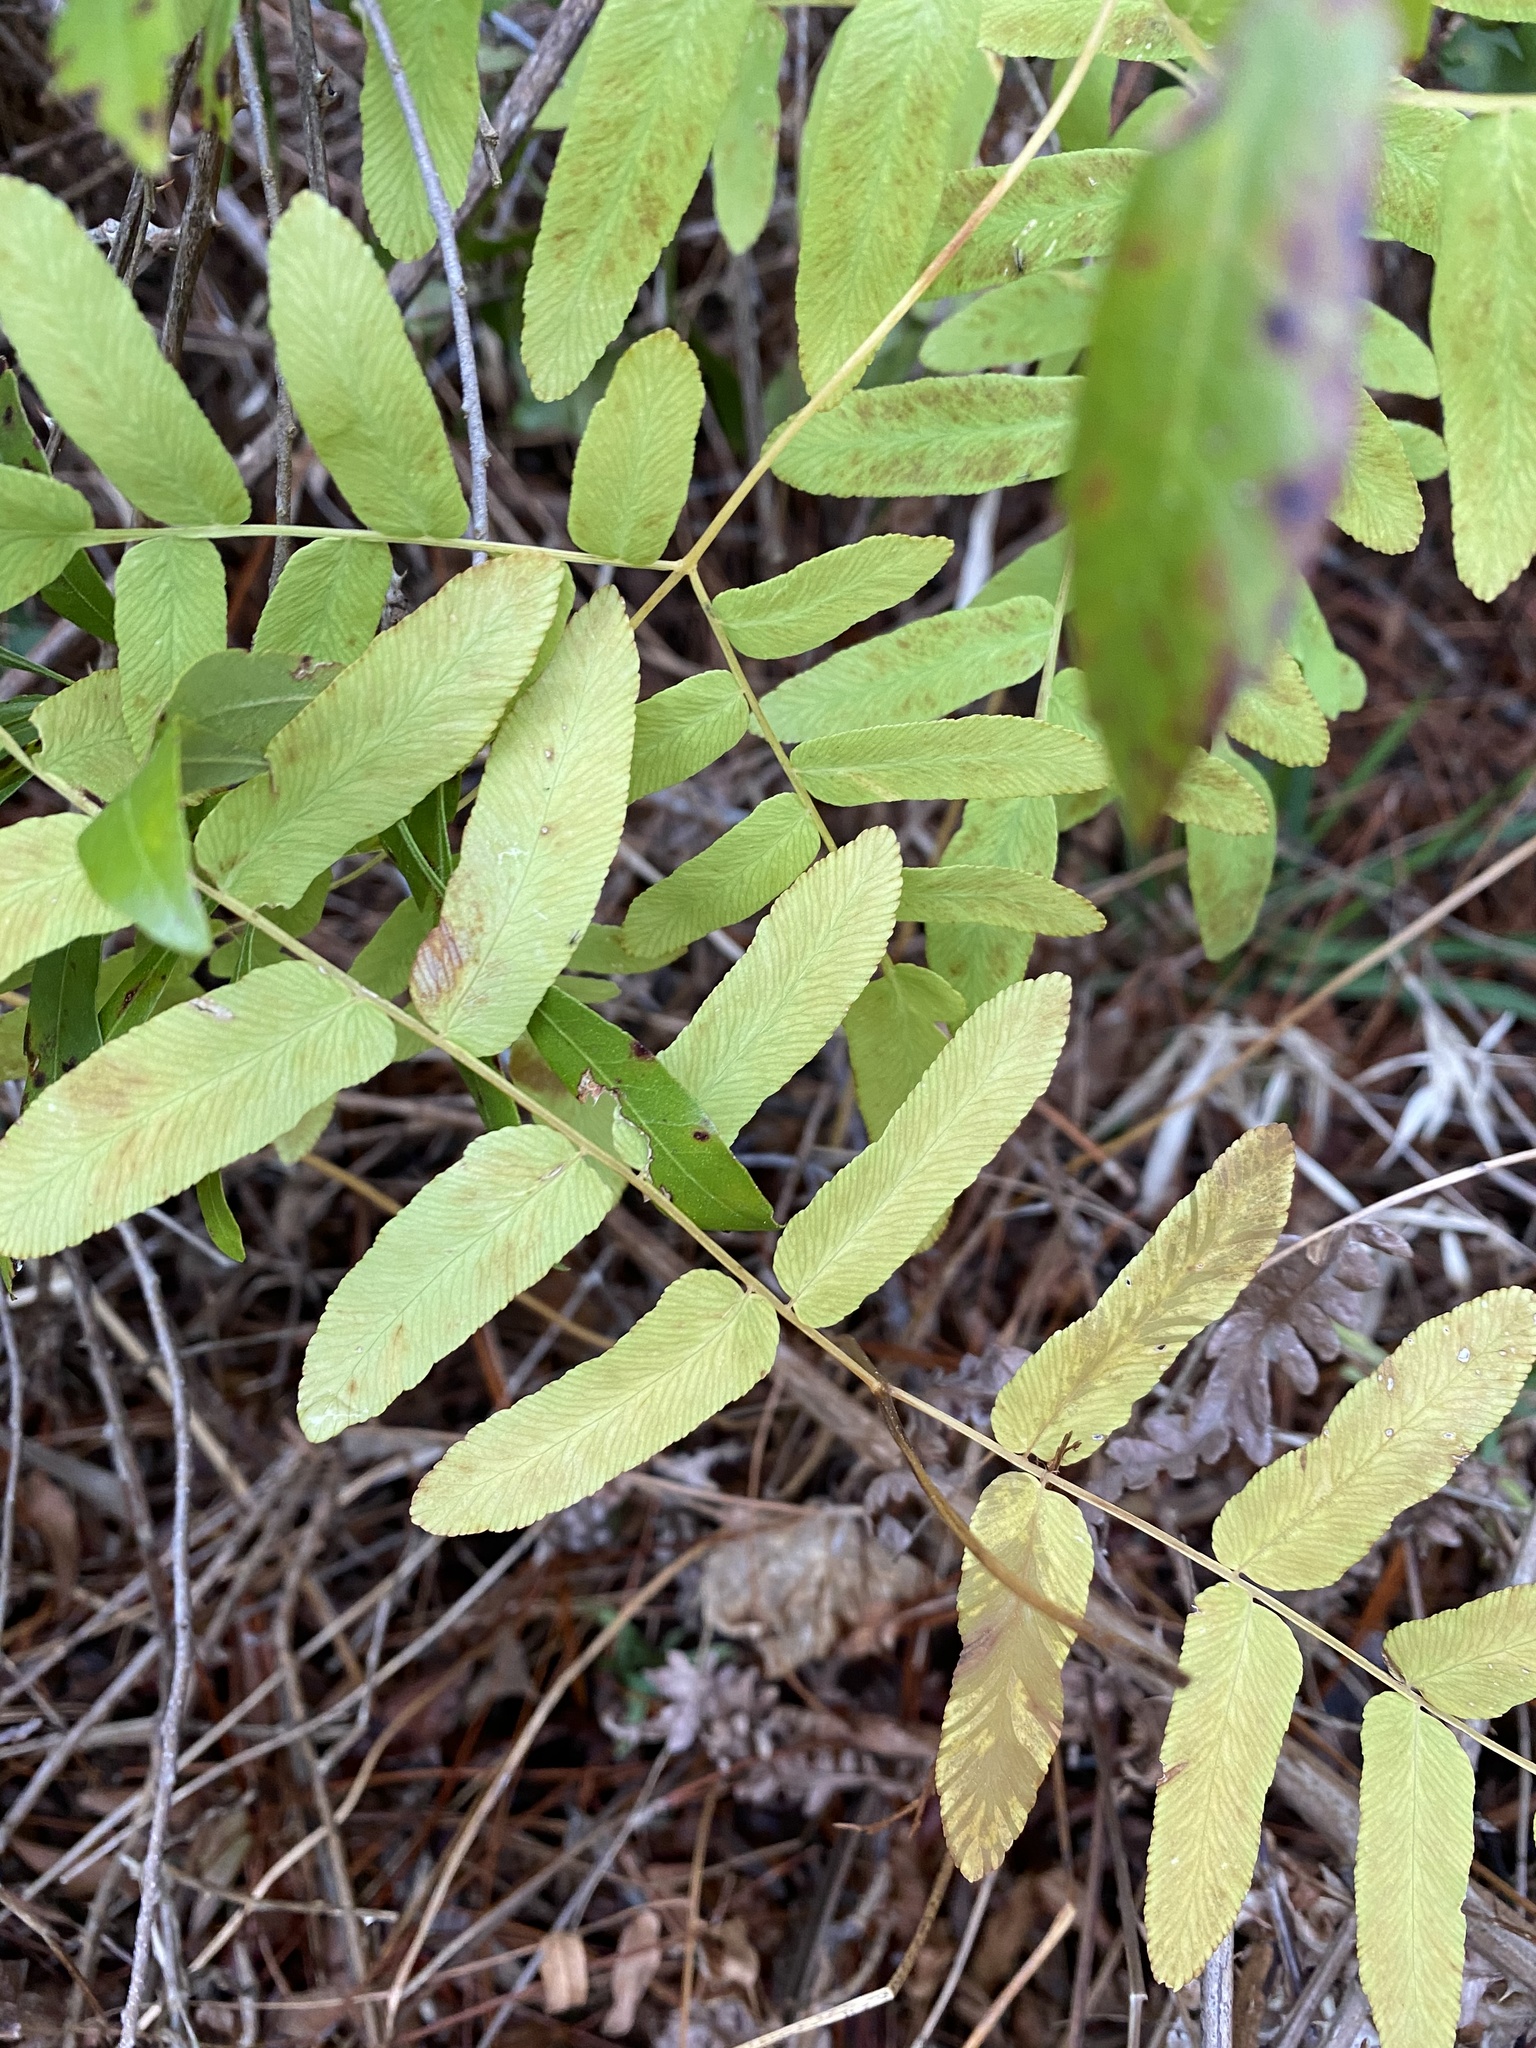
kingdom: Plantae
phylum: Tracheophyta
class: Polypodiopsida
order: Osmundales
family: Osmundaceae
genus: Osmunda
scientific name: Osmunda spectabilis
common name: American royal fern
